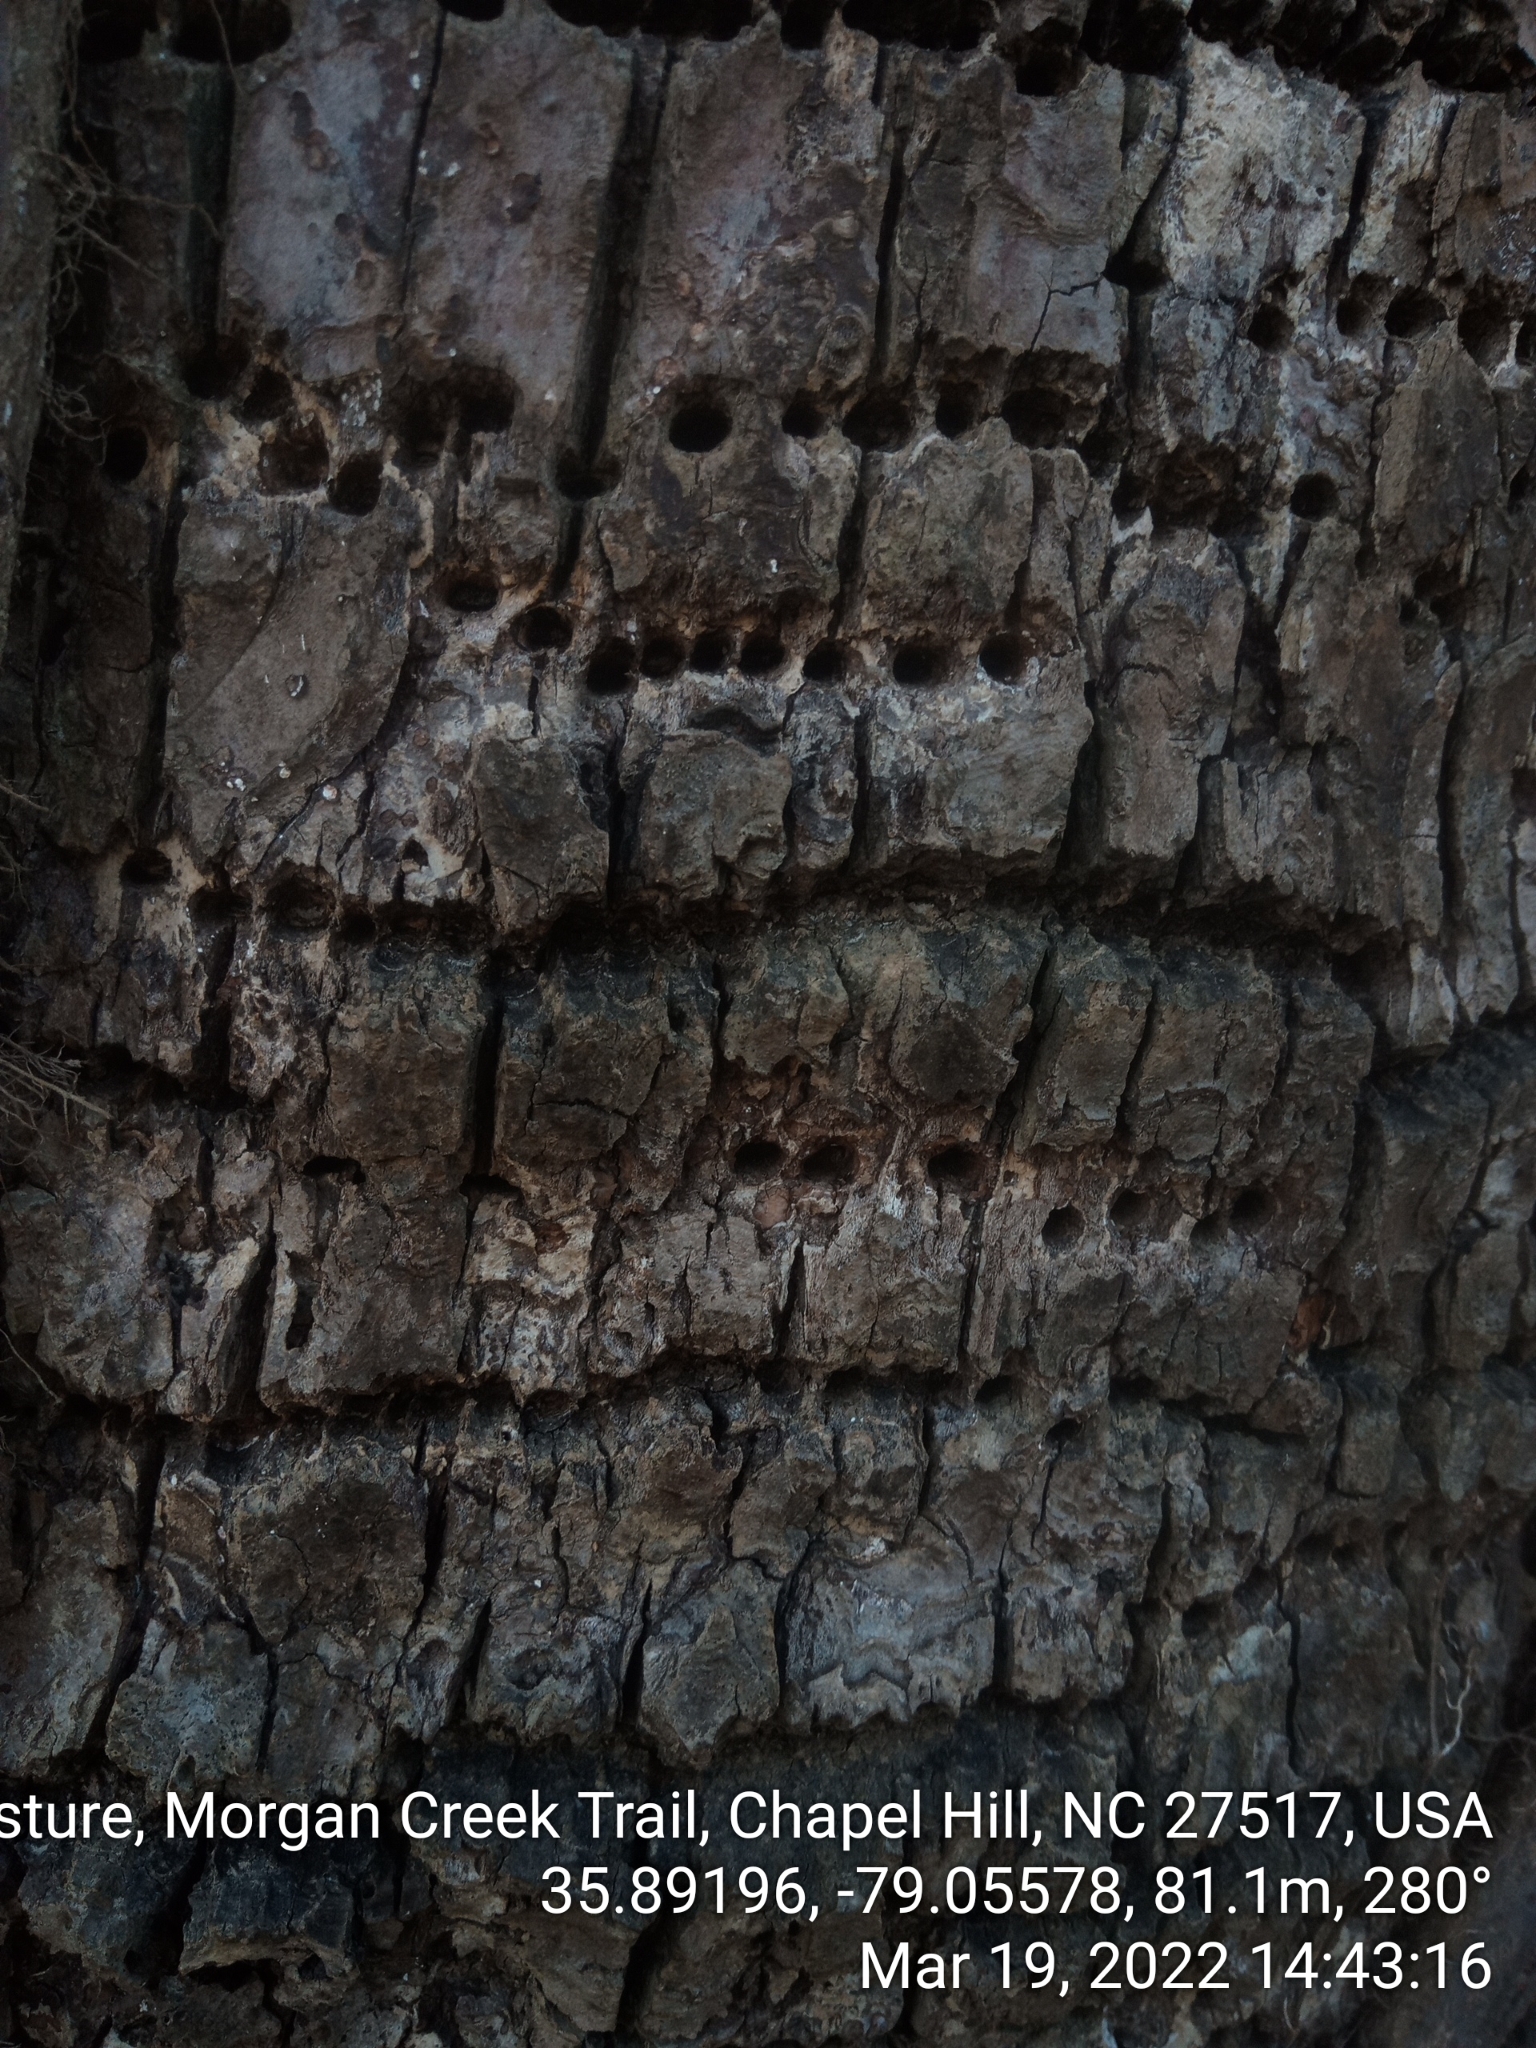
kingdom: Animalia
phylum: Chordata
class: Aves
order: Piciformes
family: Picidae
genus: Sphyrapicus
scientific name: Sphyrapicus varius
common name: Yellow-bellied sapsucker
